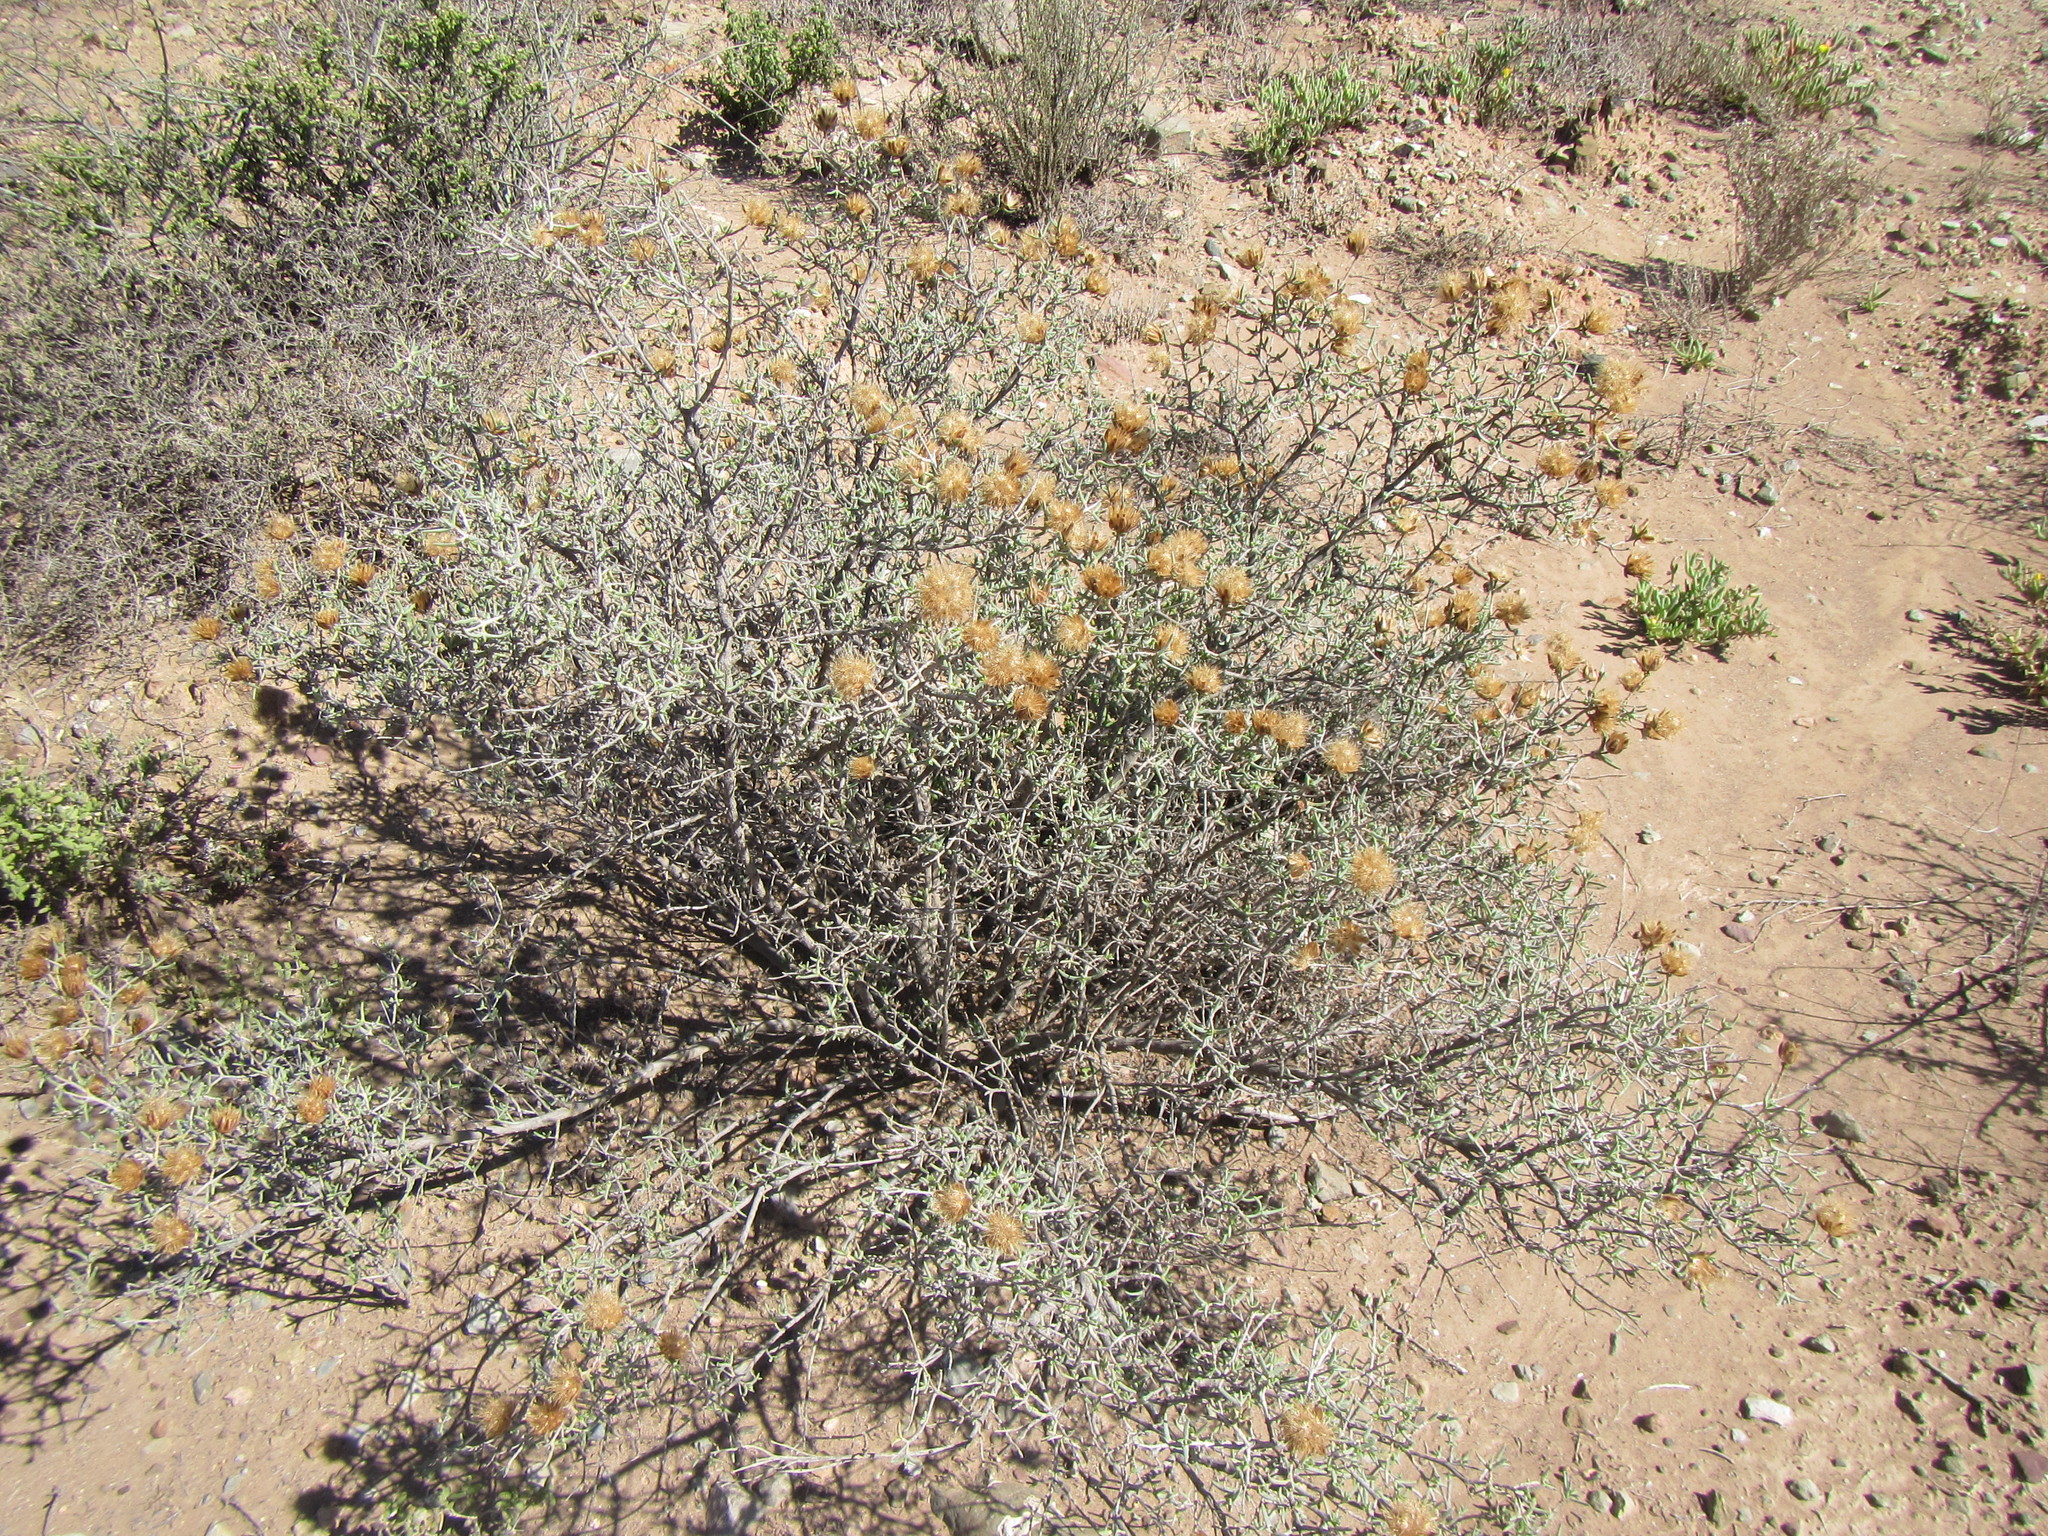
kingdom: Plantae
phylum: Tracheophyta
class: Magnoliopsida
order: Asterales
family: Asteraceae
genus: Pteronia
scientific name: Pteronia succulenta
